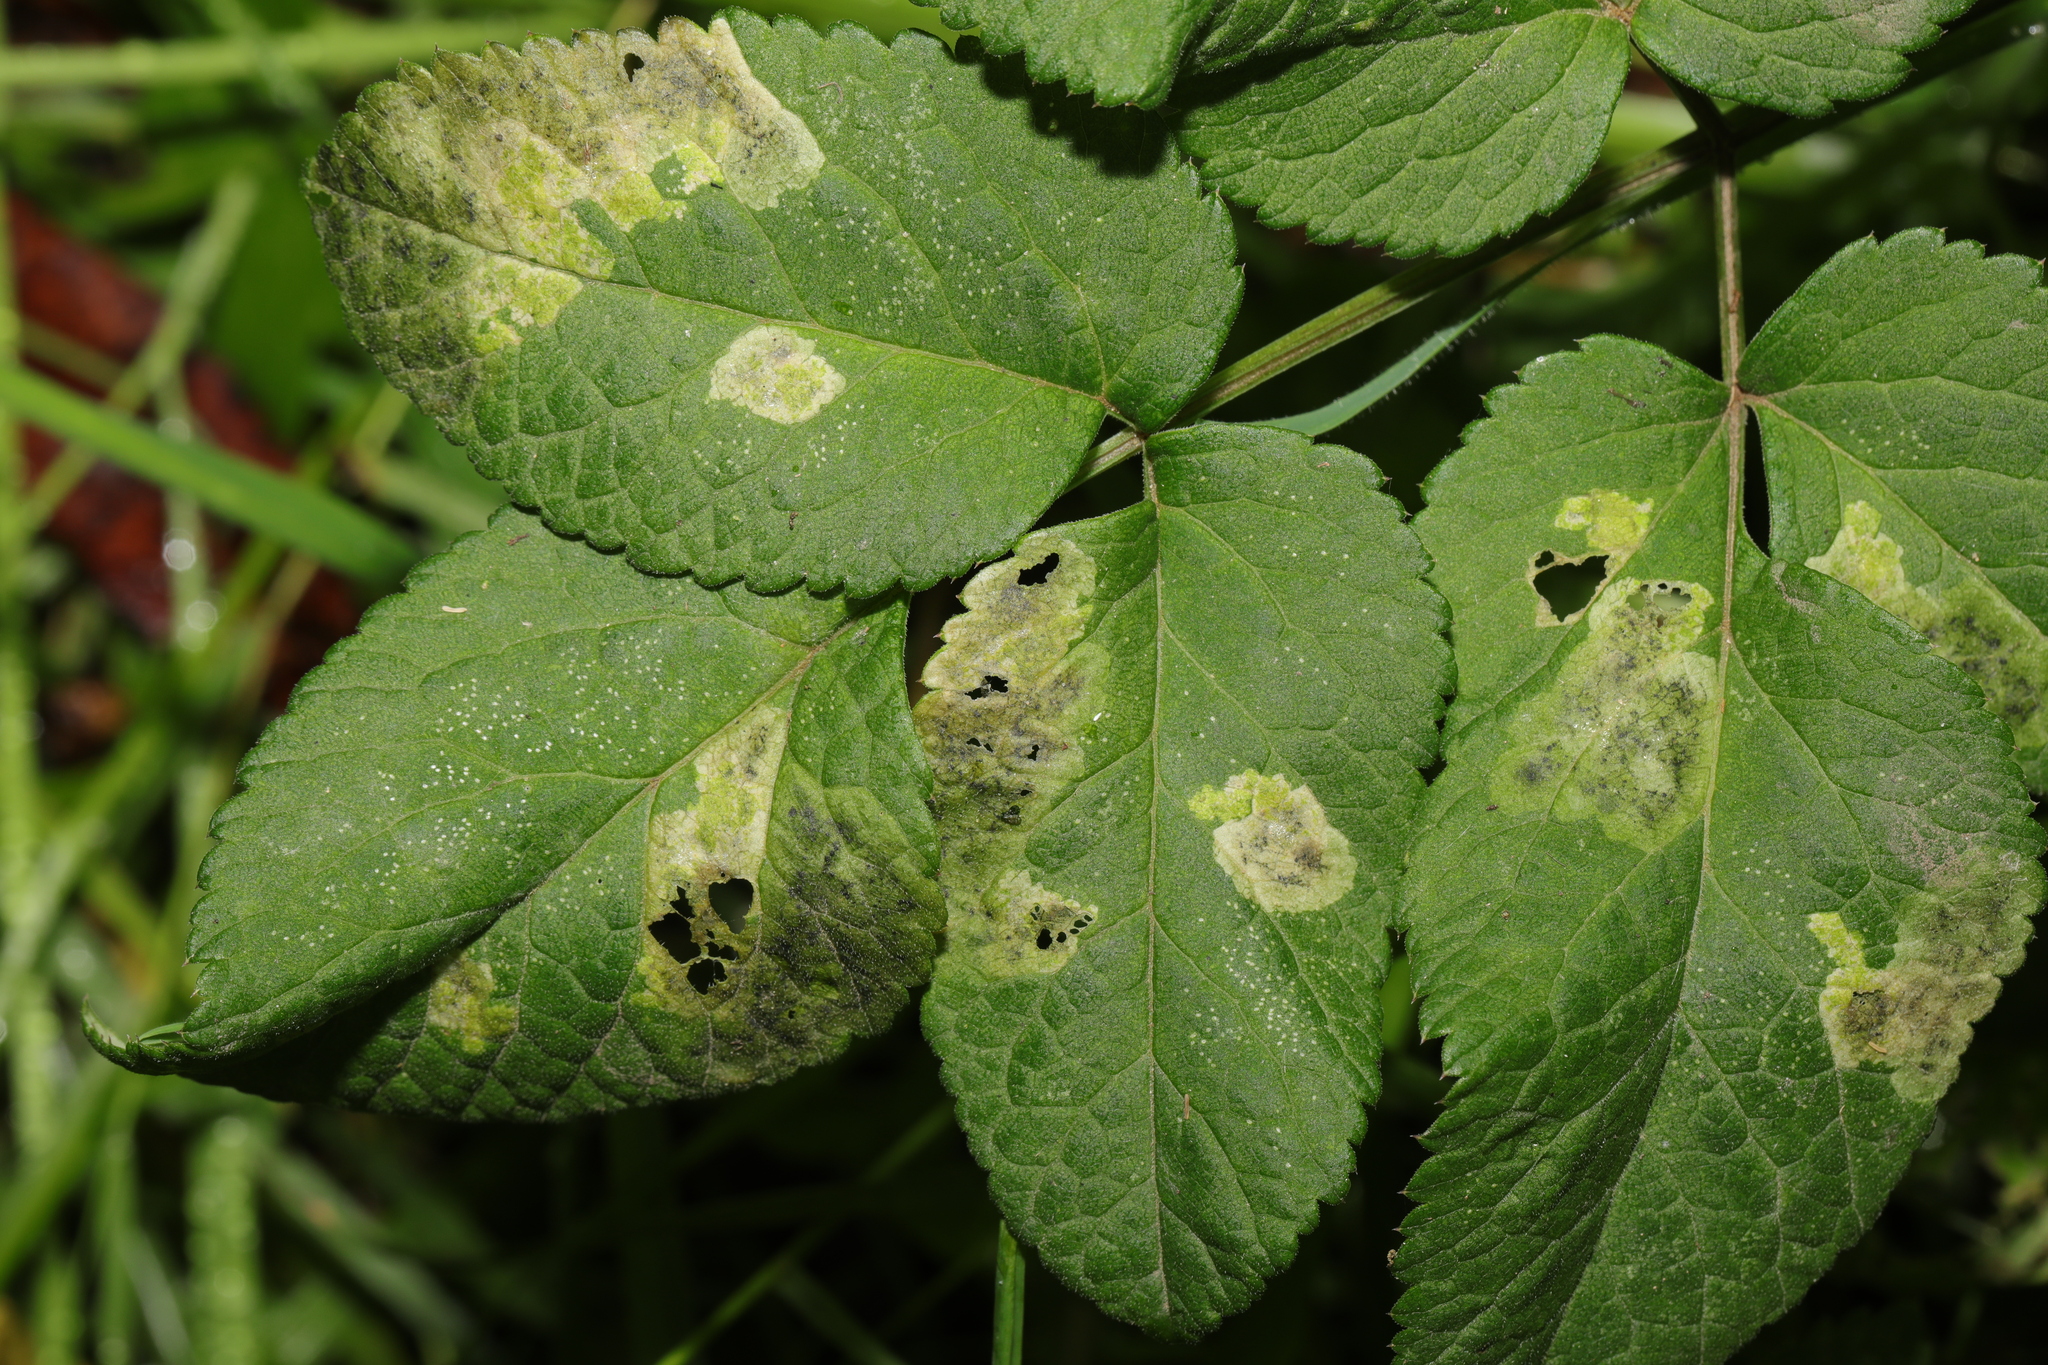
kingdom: Plantae
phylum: Tracheophyta
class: Magnoliopsida
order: Apiales
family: Apiaceae
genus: Angelica
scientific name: Angelica sylvestris
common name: Wild angelica
